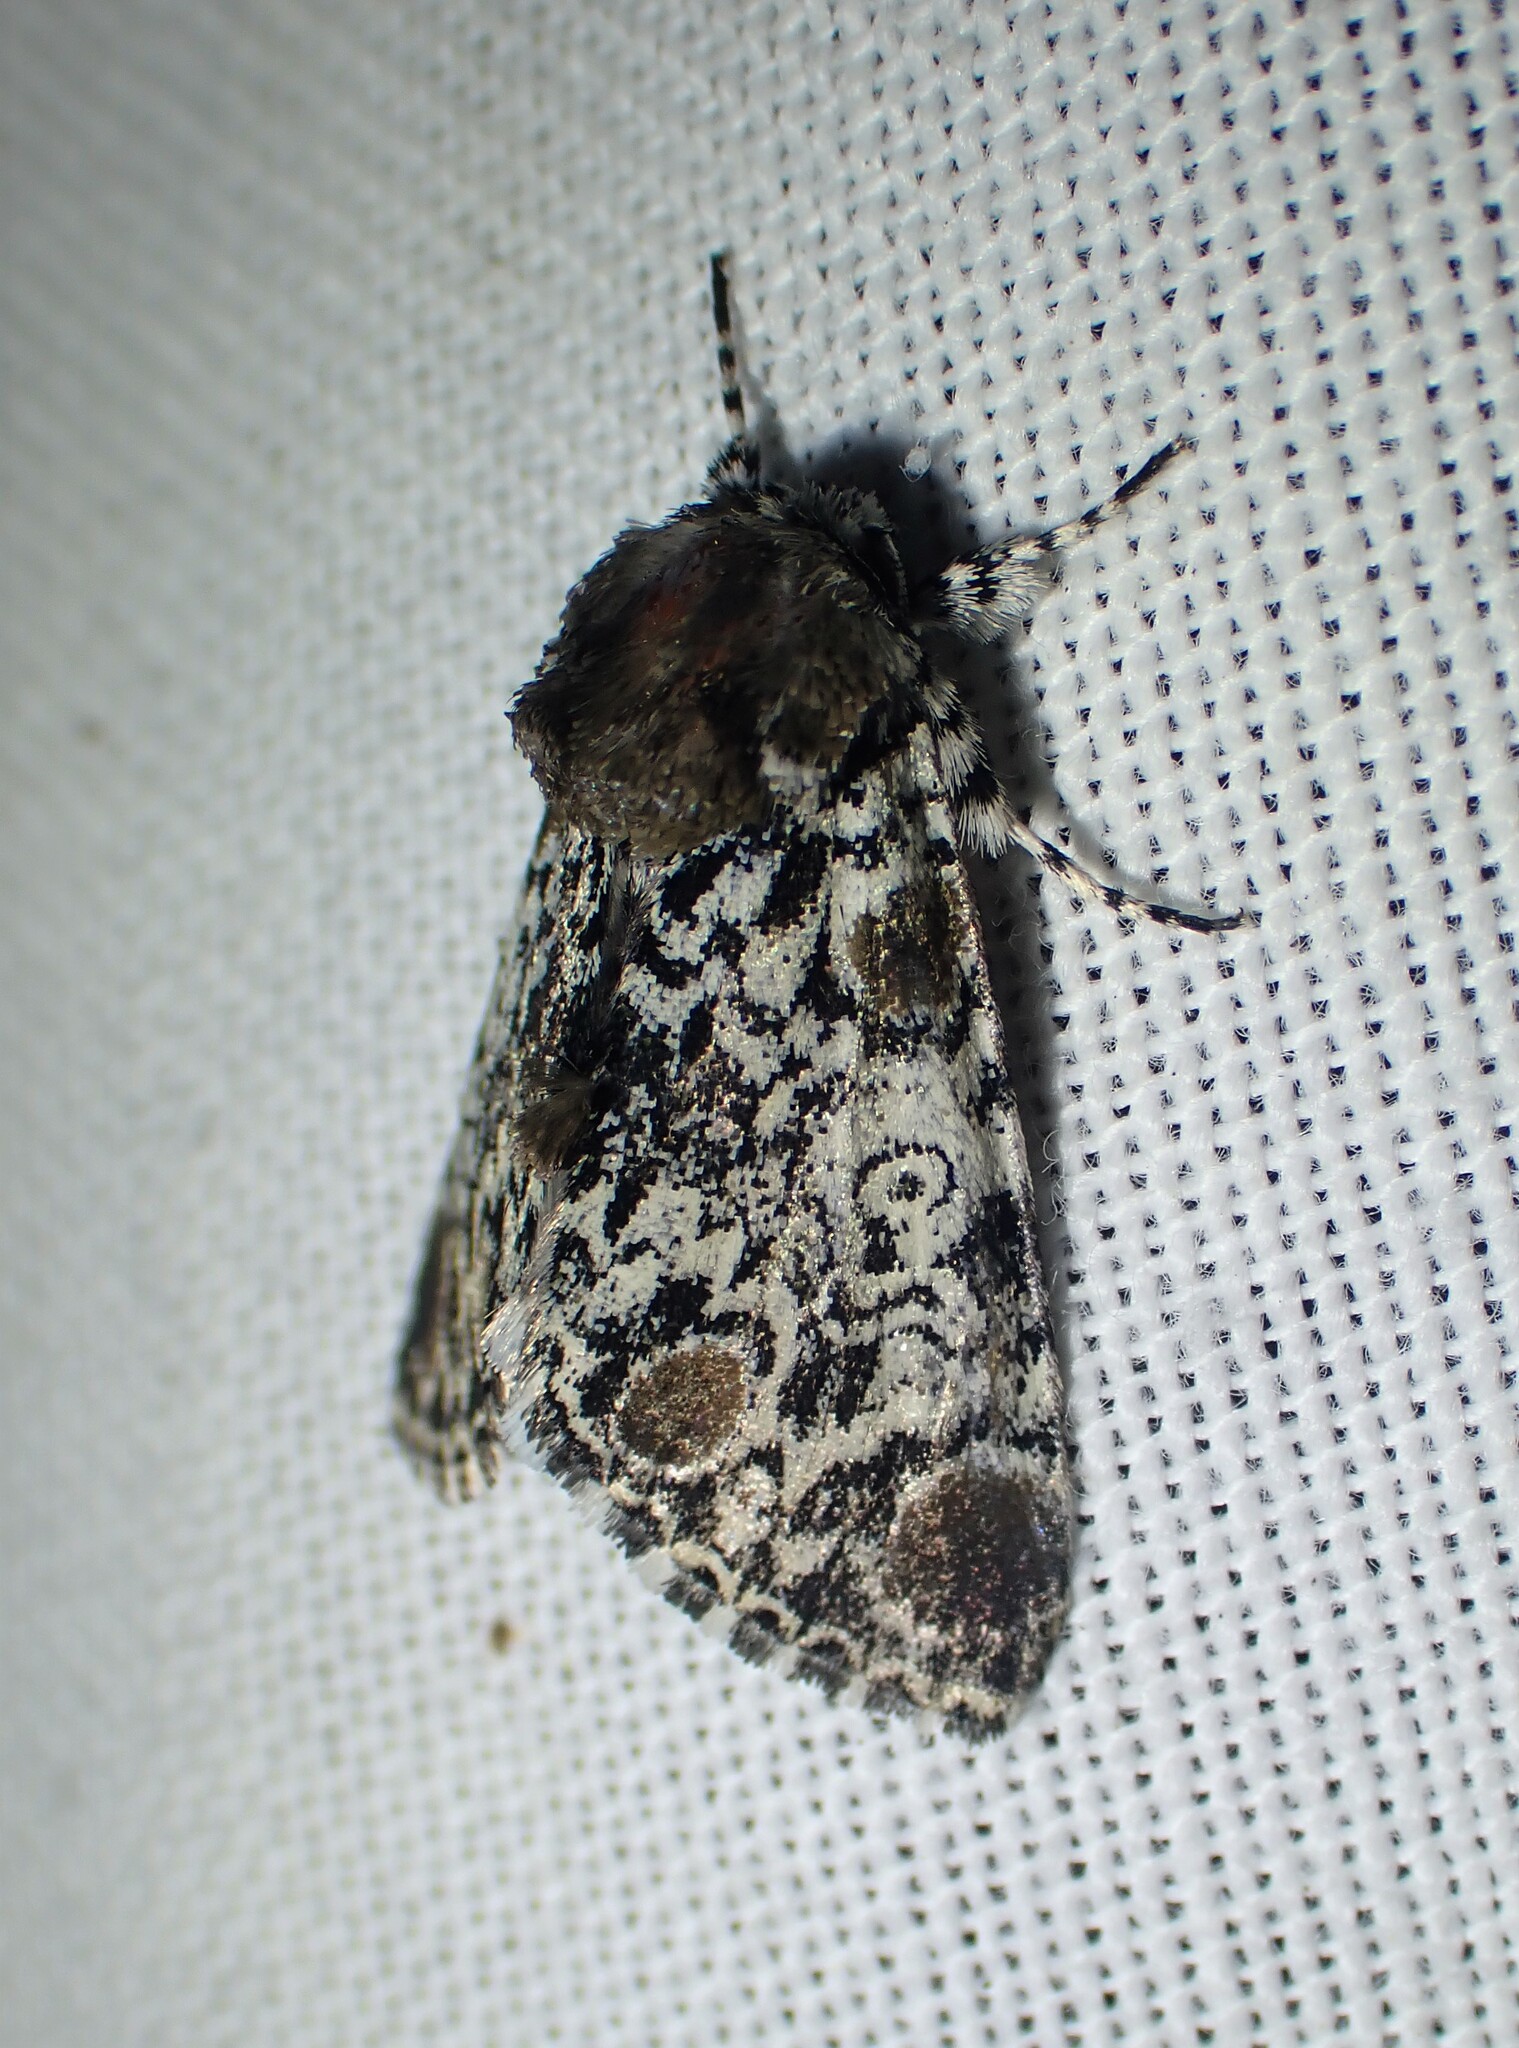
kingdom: Animalia
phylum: Arthropoda
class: Insecta
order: Lepidoptera
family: Noctuidae
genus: Harrisimemna
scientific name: Harrisimemna trisignata
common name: Harris threespot
